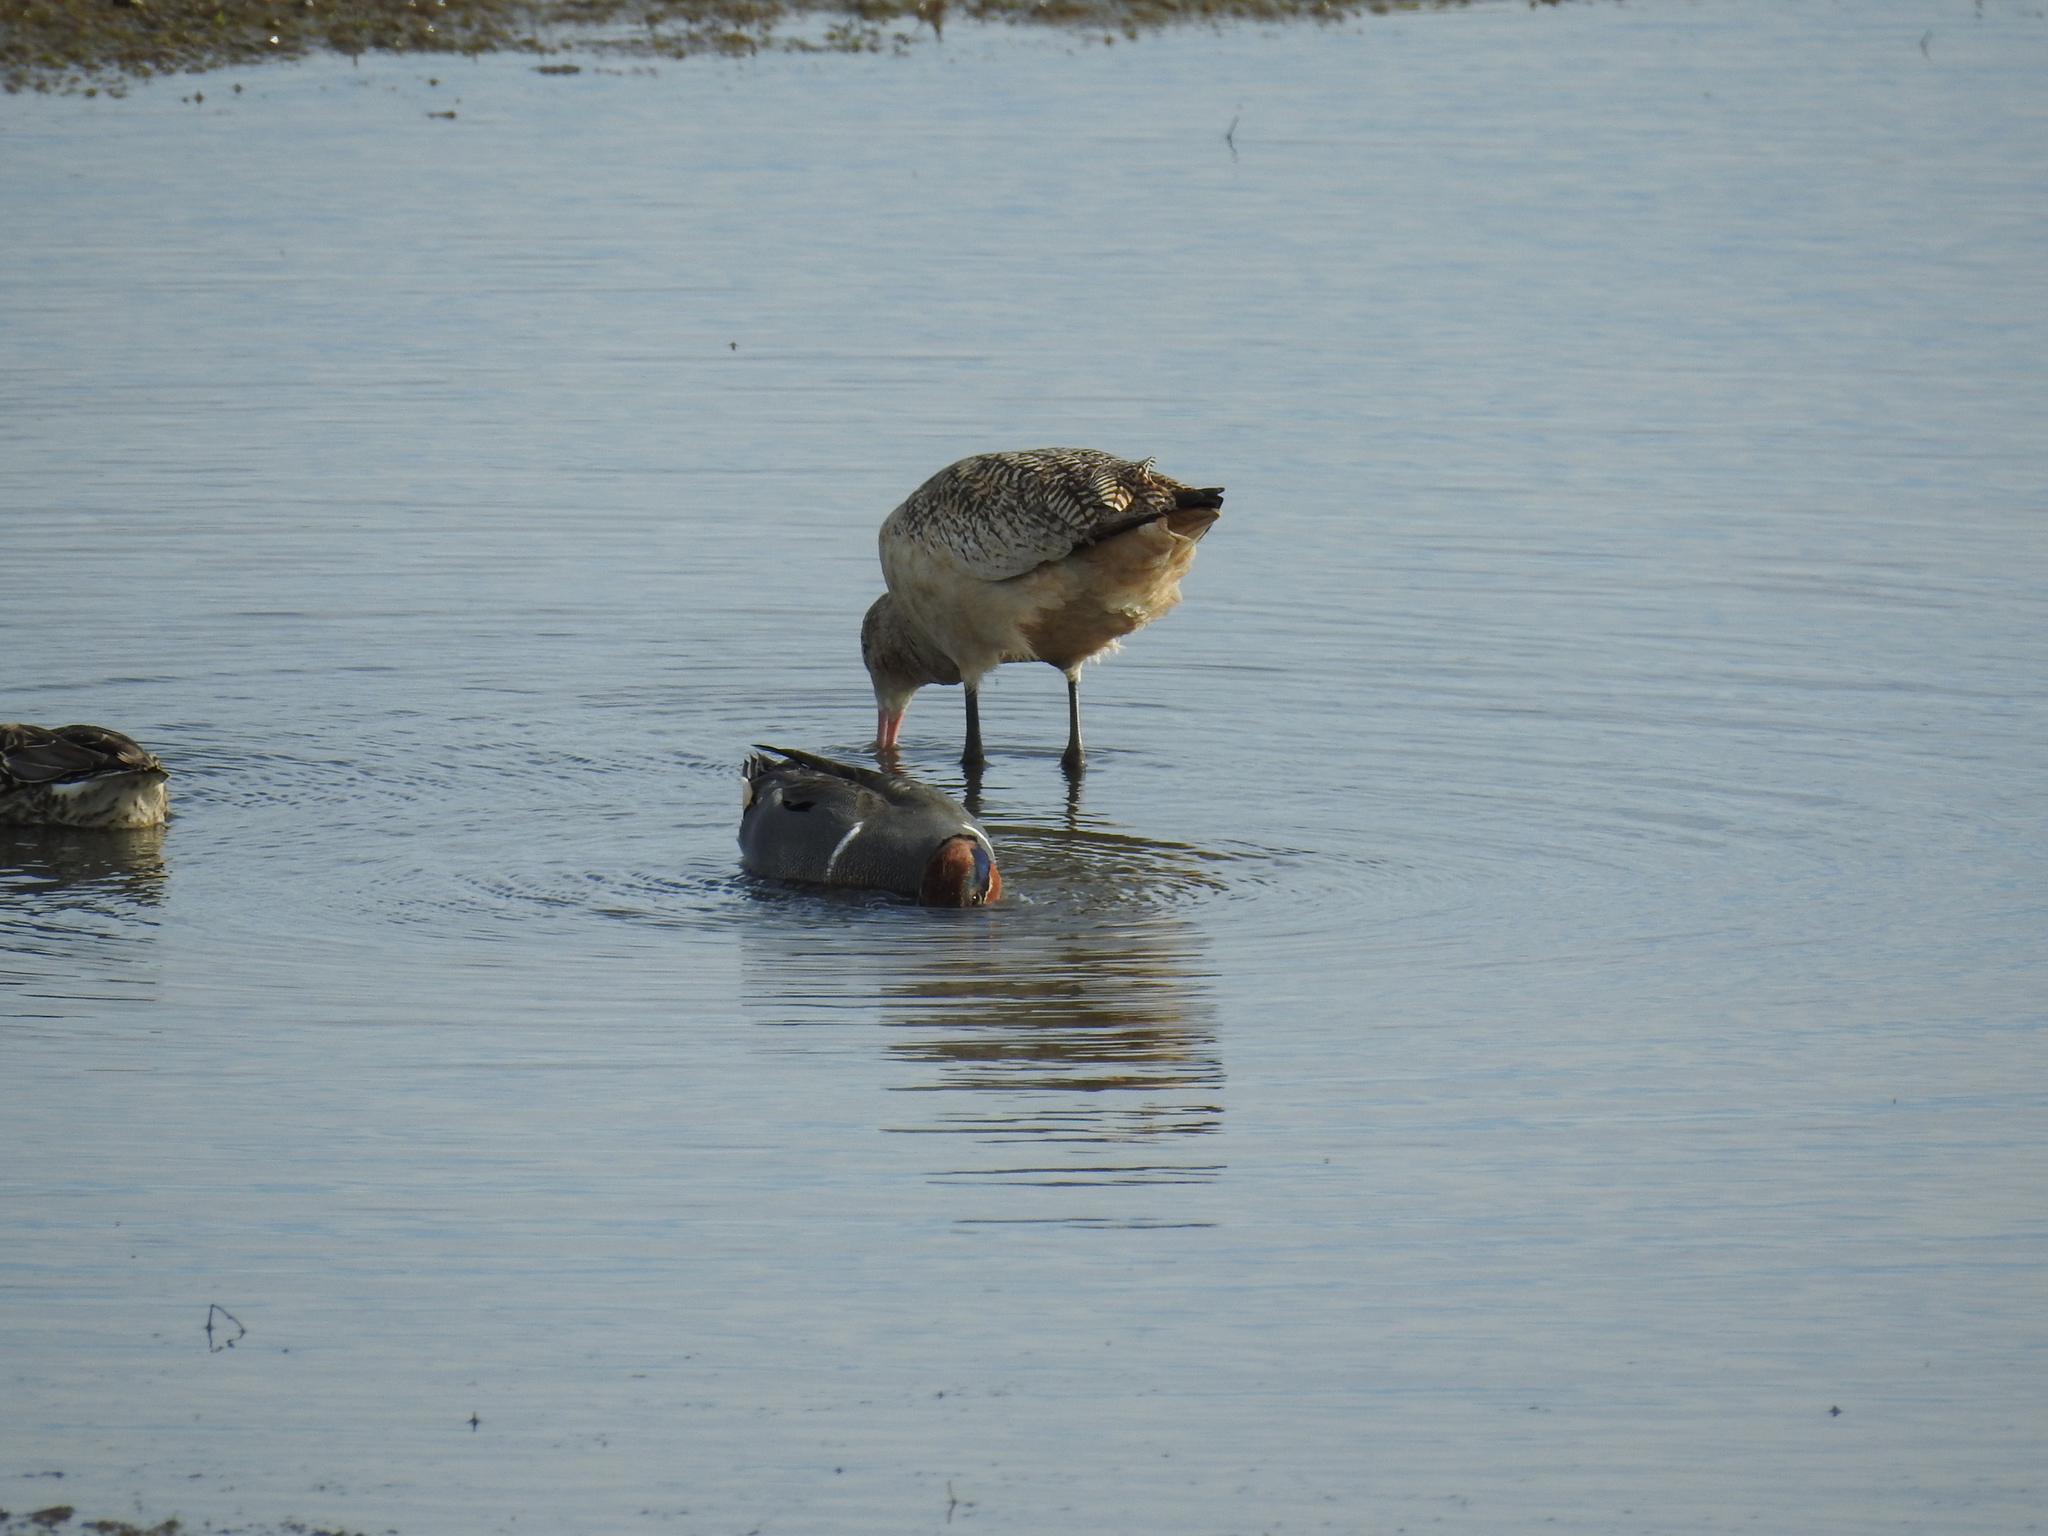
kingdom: Animalia
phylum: Chordata
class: Aves
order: Anseriformes
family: Anatidae
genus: Anas
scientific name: Anas crecca
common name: Eurasian teal
